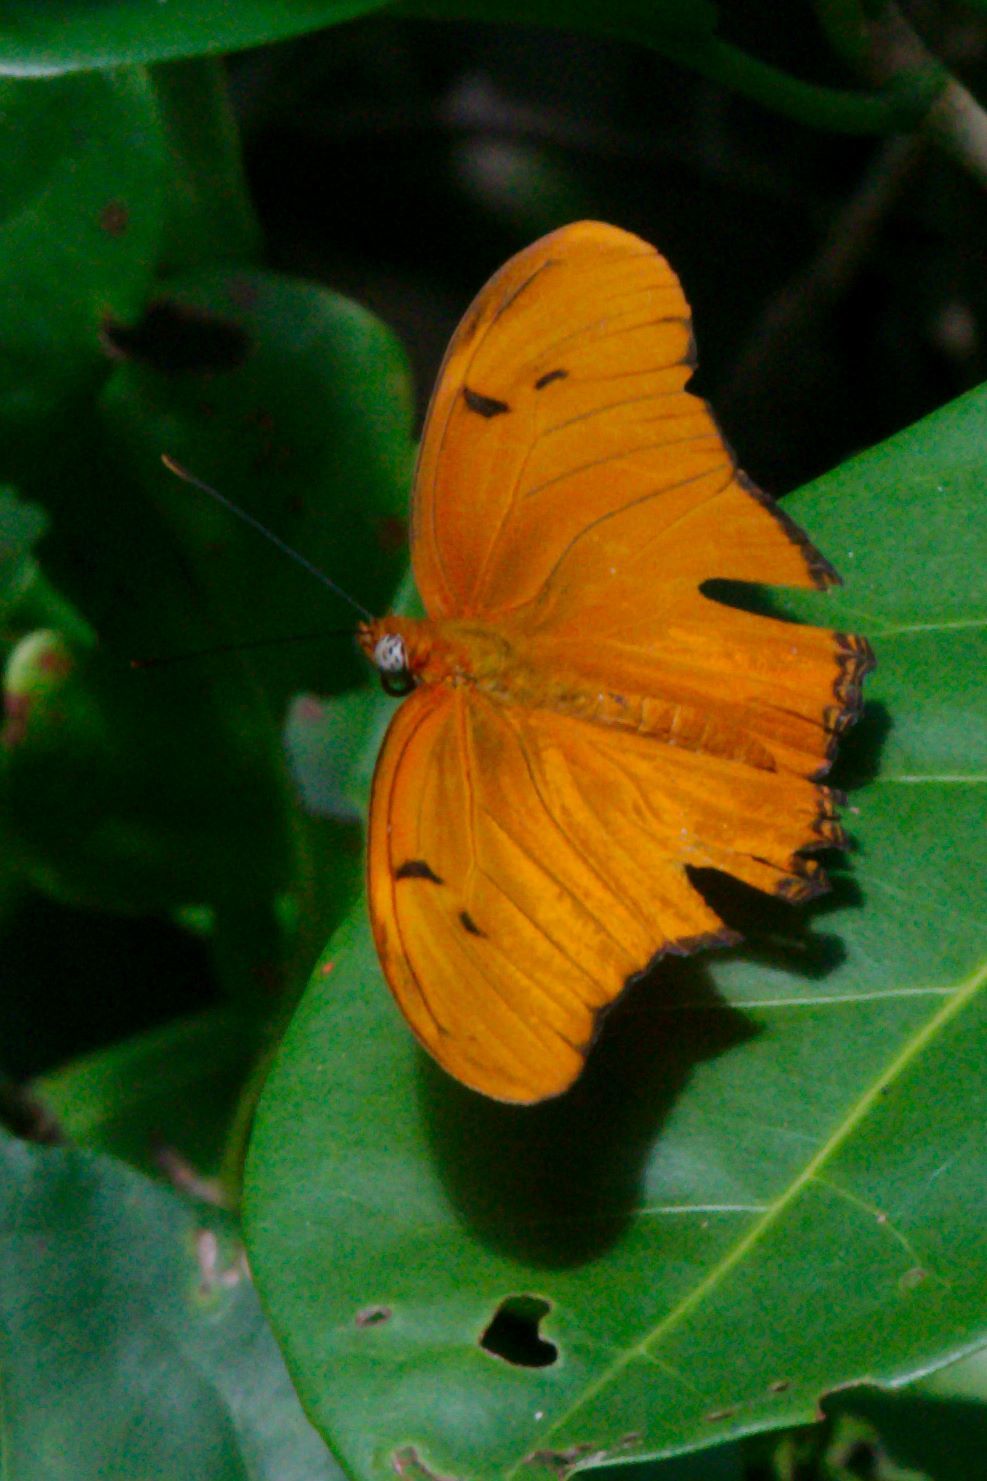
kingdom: Animalia
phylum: Arthropoda
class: Insecta
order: Lepidoptera
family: Nymphalidae
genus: Dryas
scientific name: Dryas iulia
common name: Flambeau
